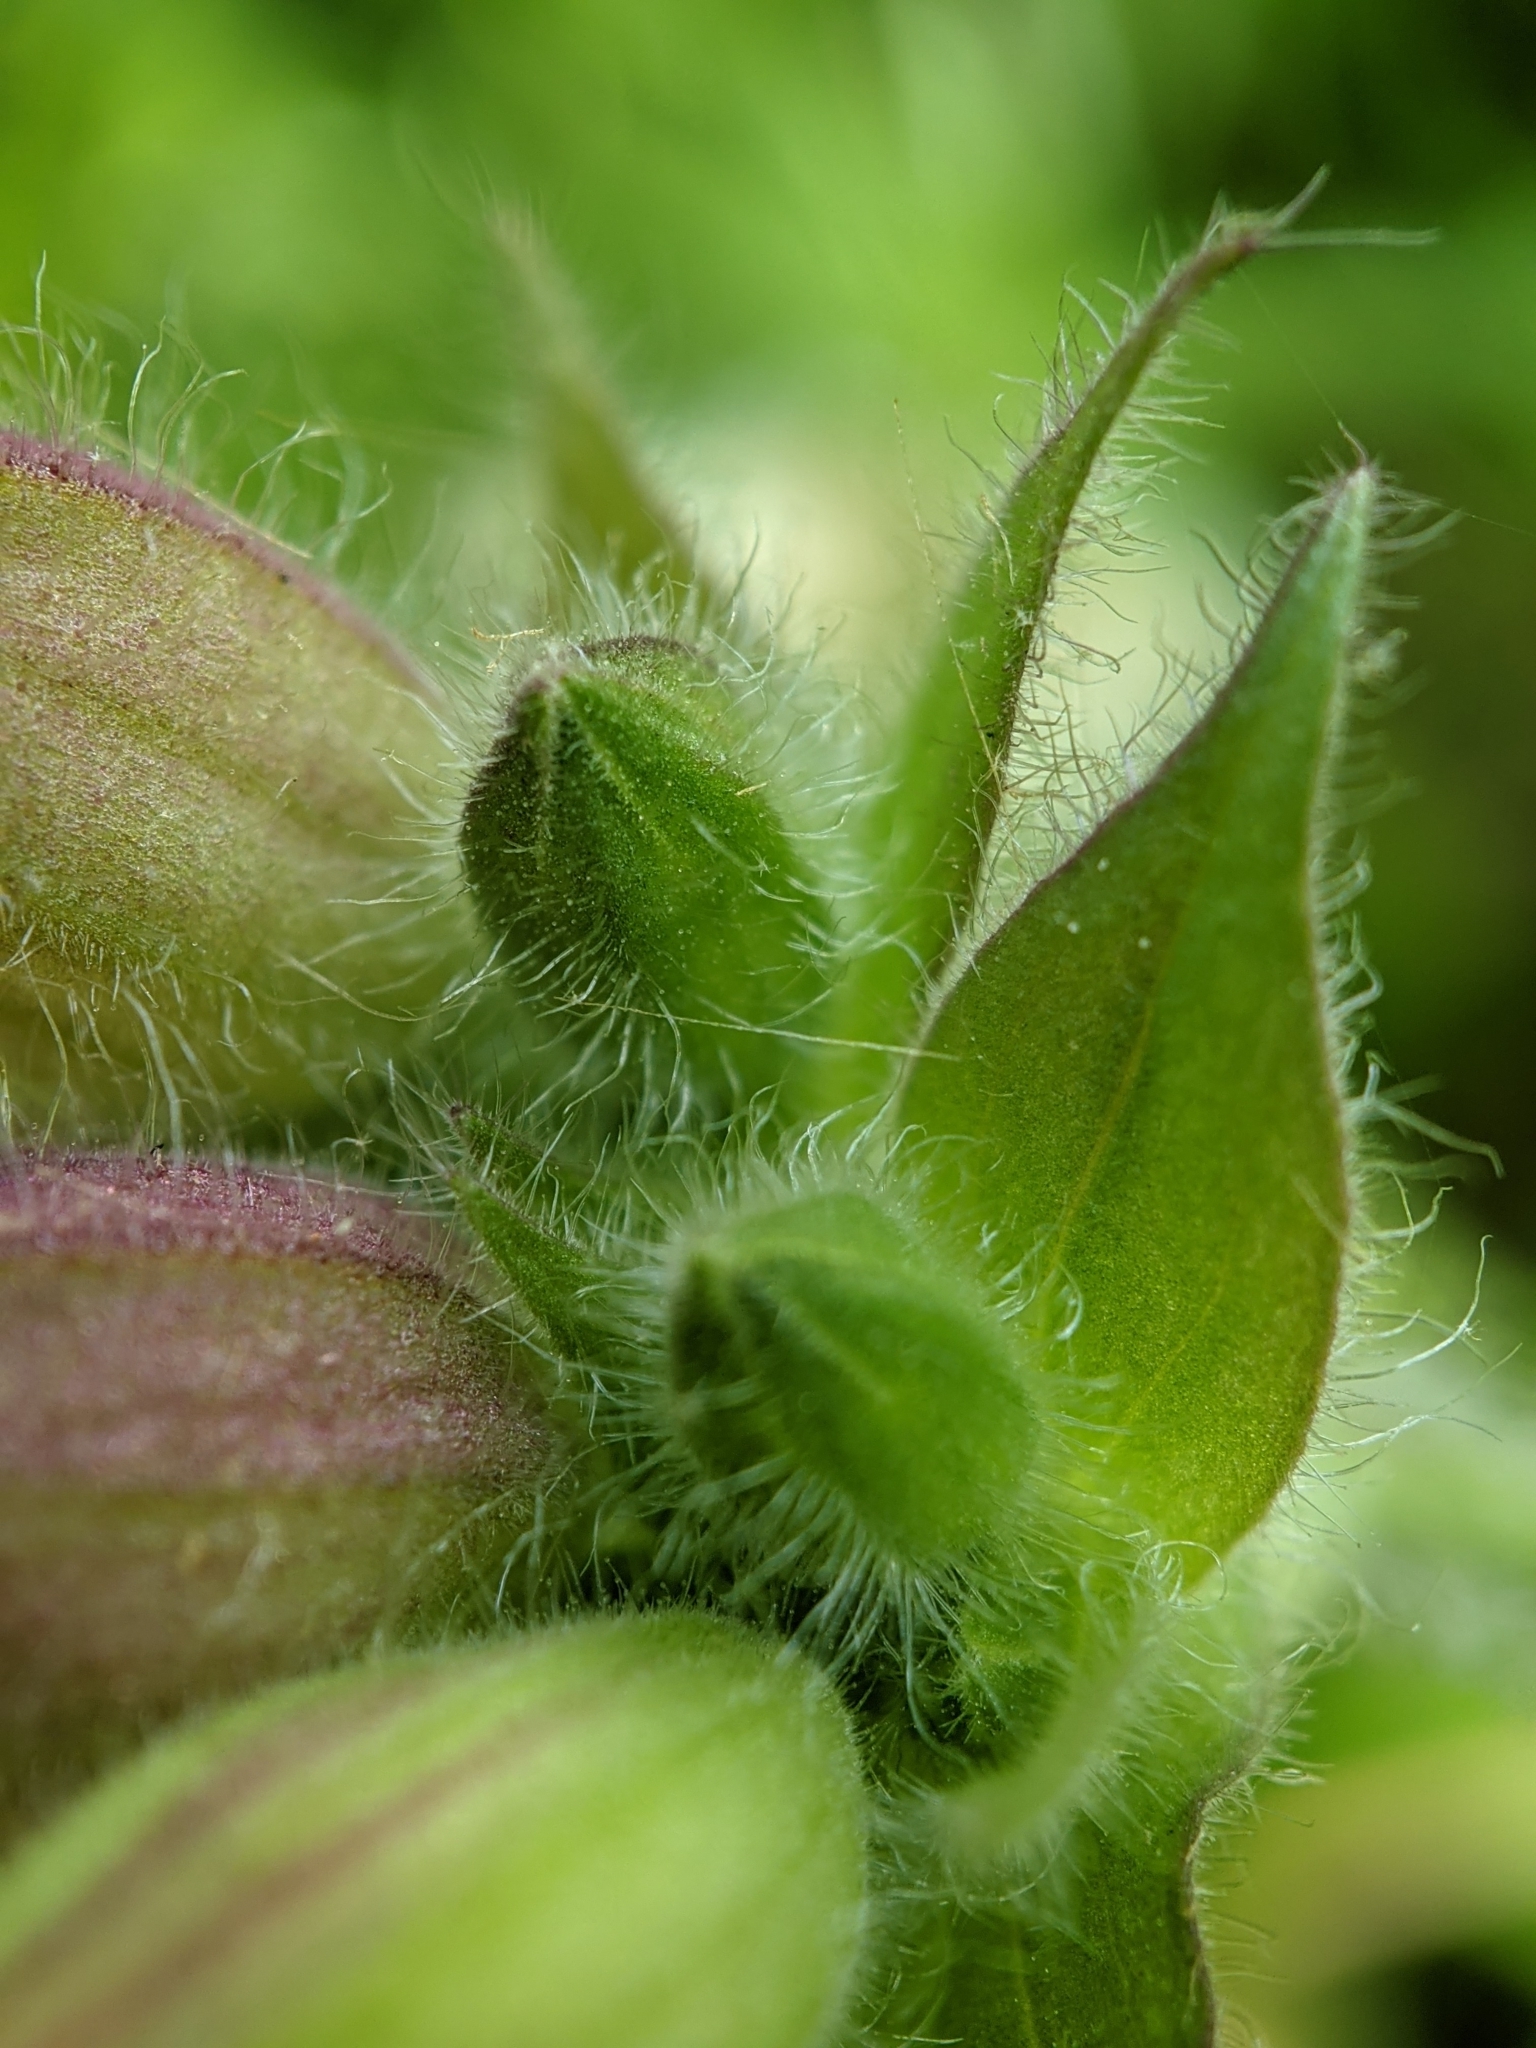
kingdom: Plantae
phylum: Tracheophyta
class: Magnoliopsida
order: Caryophyllales
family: Caryophyllaceae
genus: Silene
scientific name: Silene hampeana
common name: Catchfly
